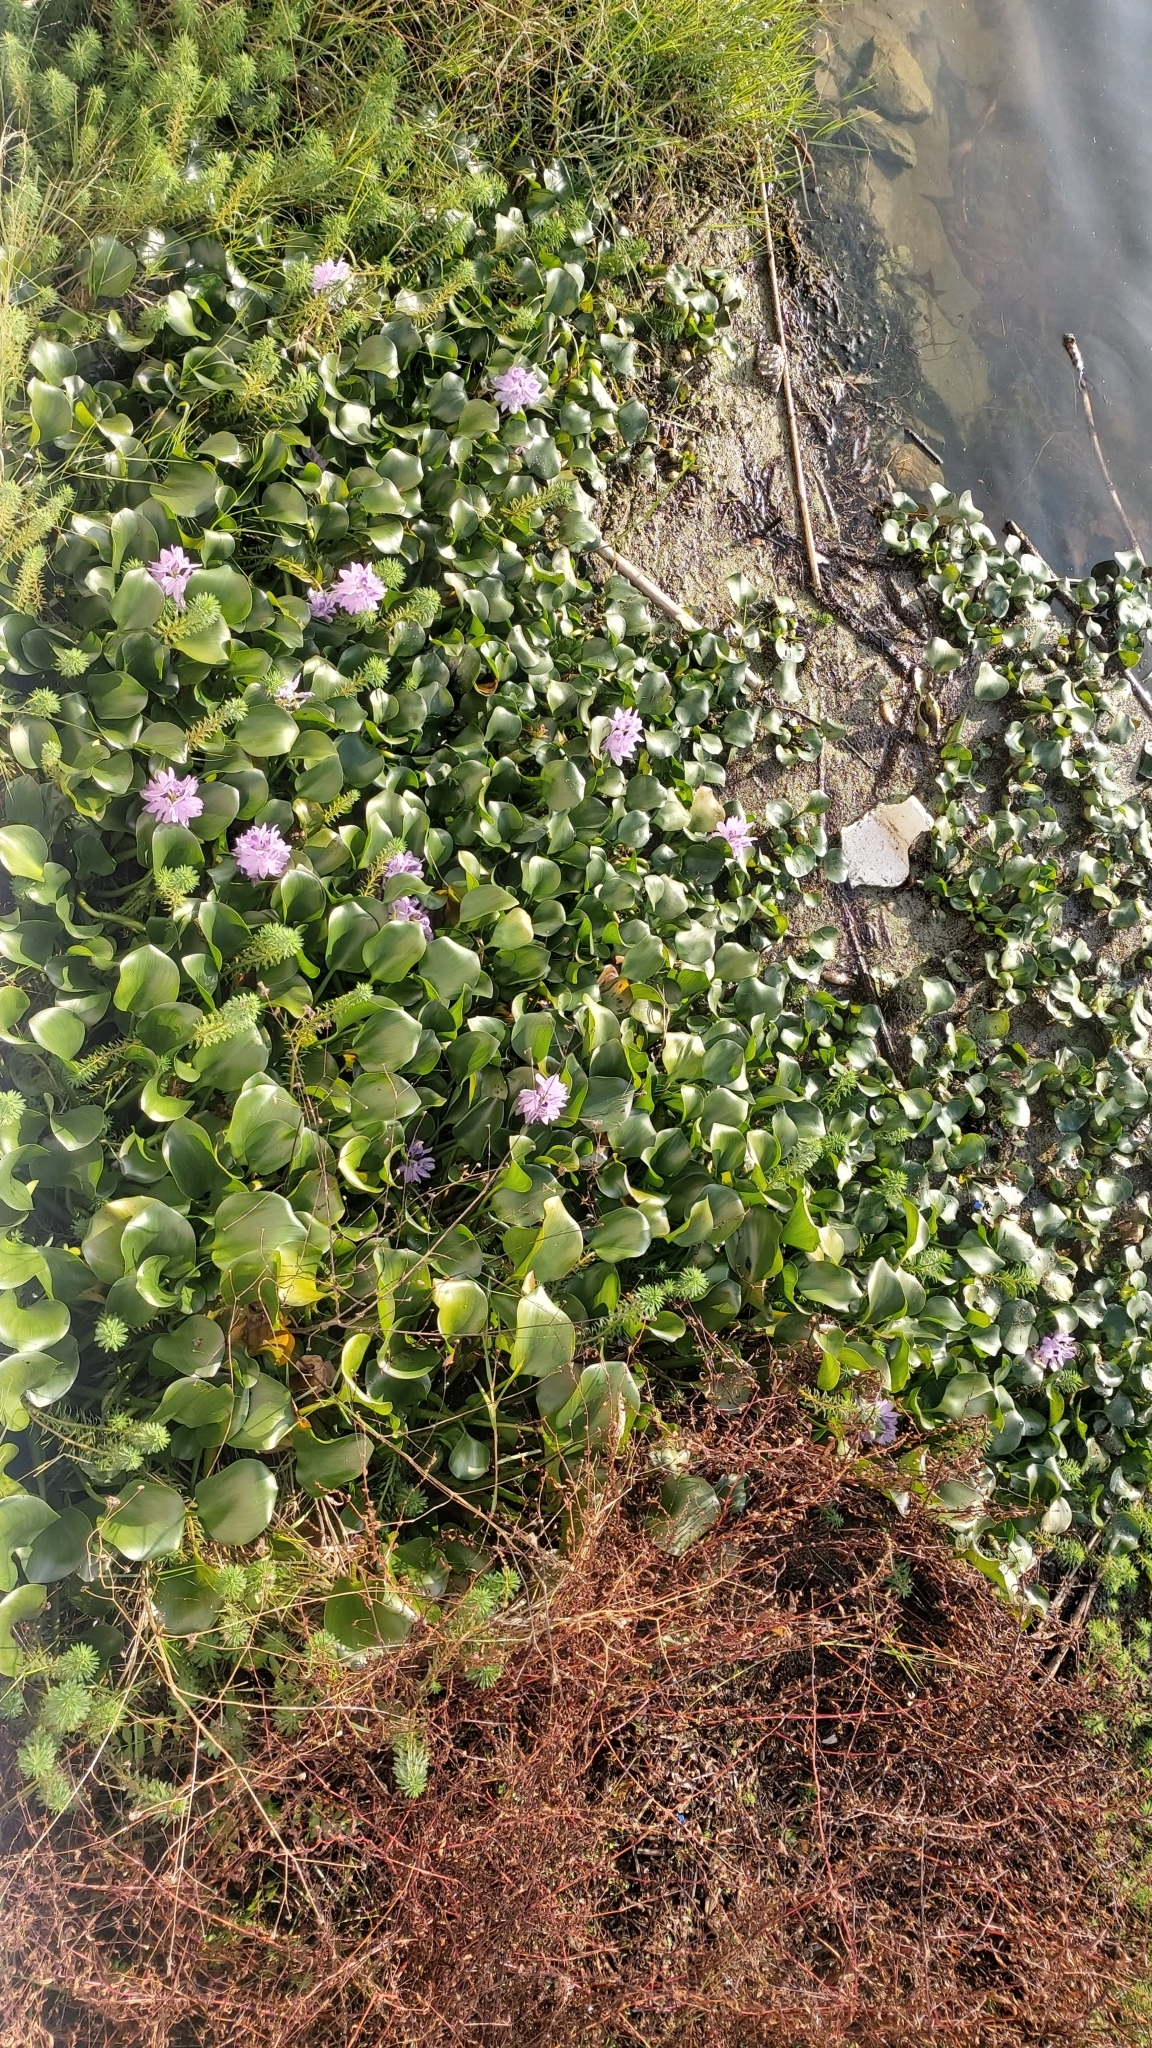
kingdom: Plantae
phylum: Tracheophyta
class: Liliopsida
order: Commelinales
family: Pontederiaceae
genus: Pontederia
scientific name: Pontederia crassipes
